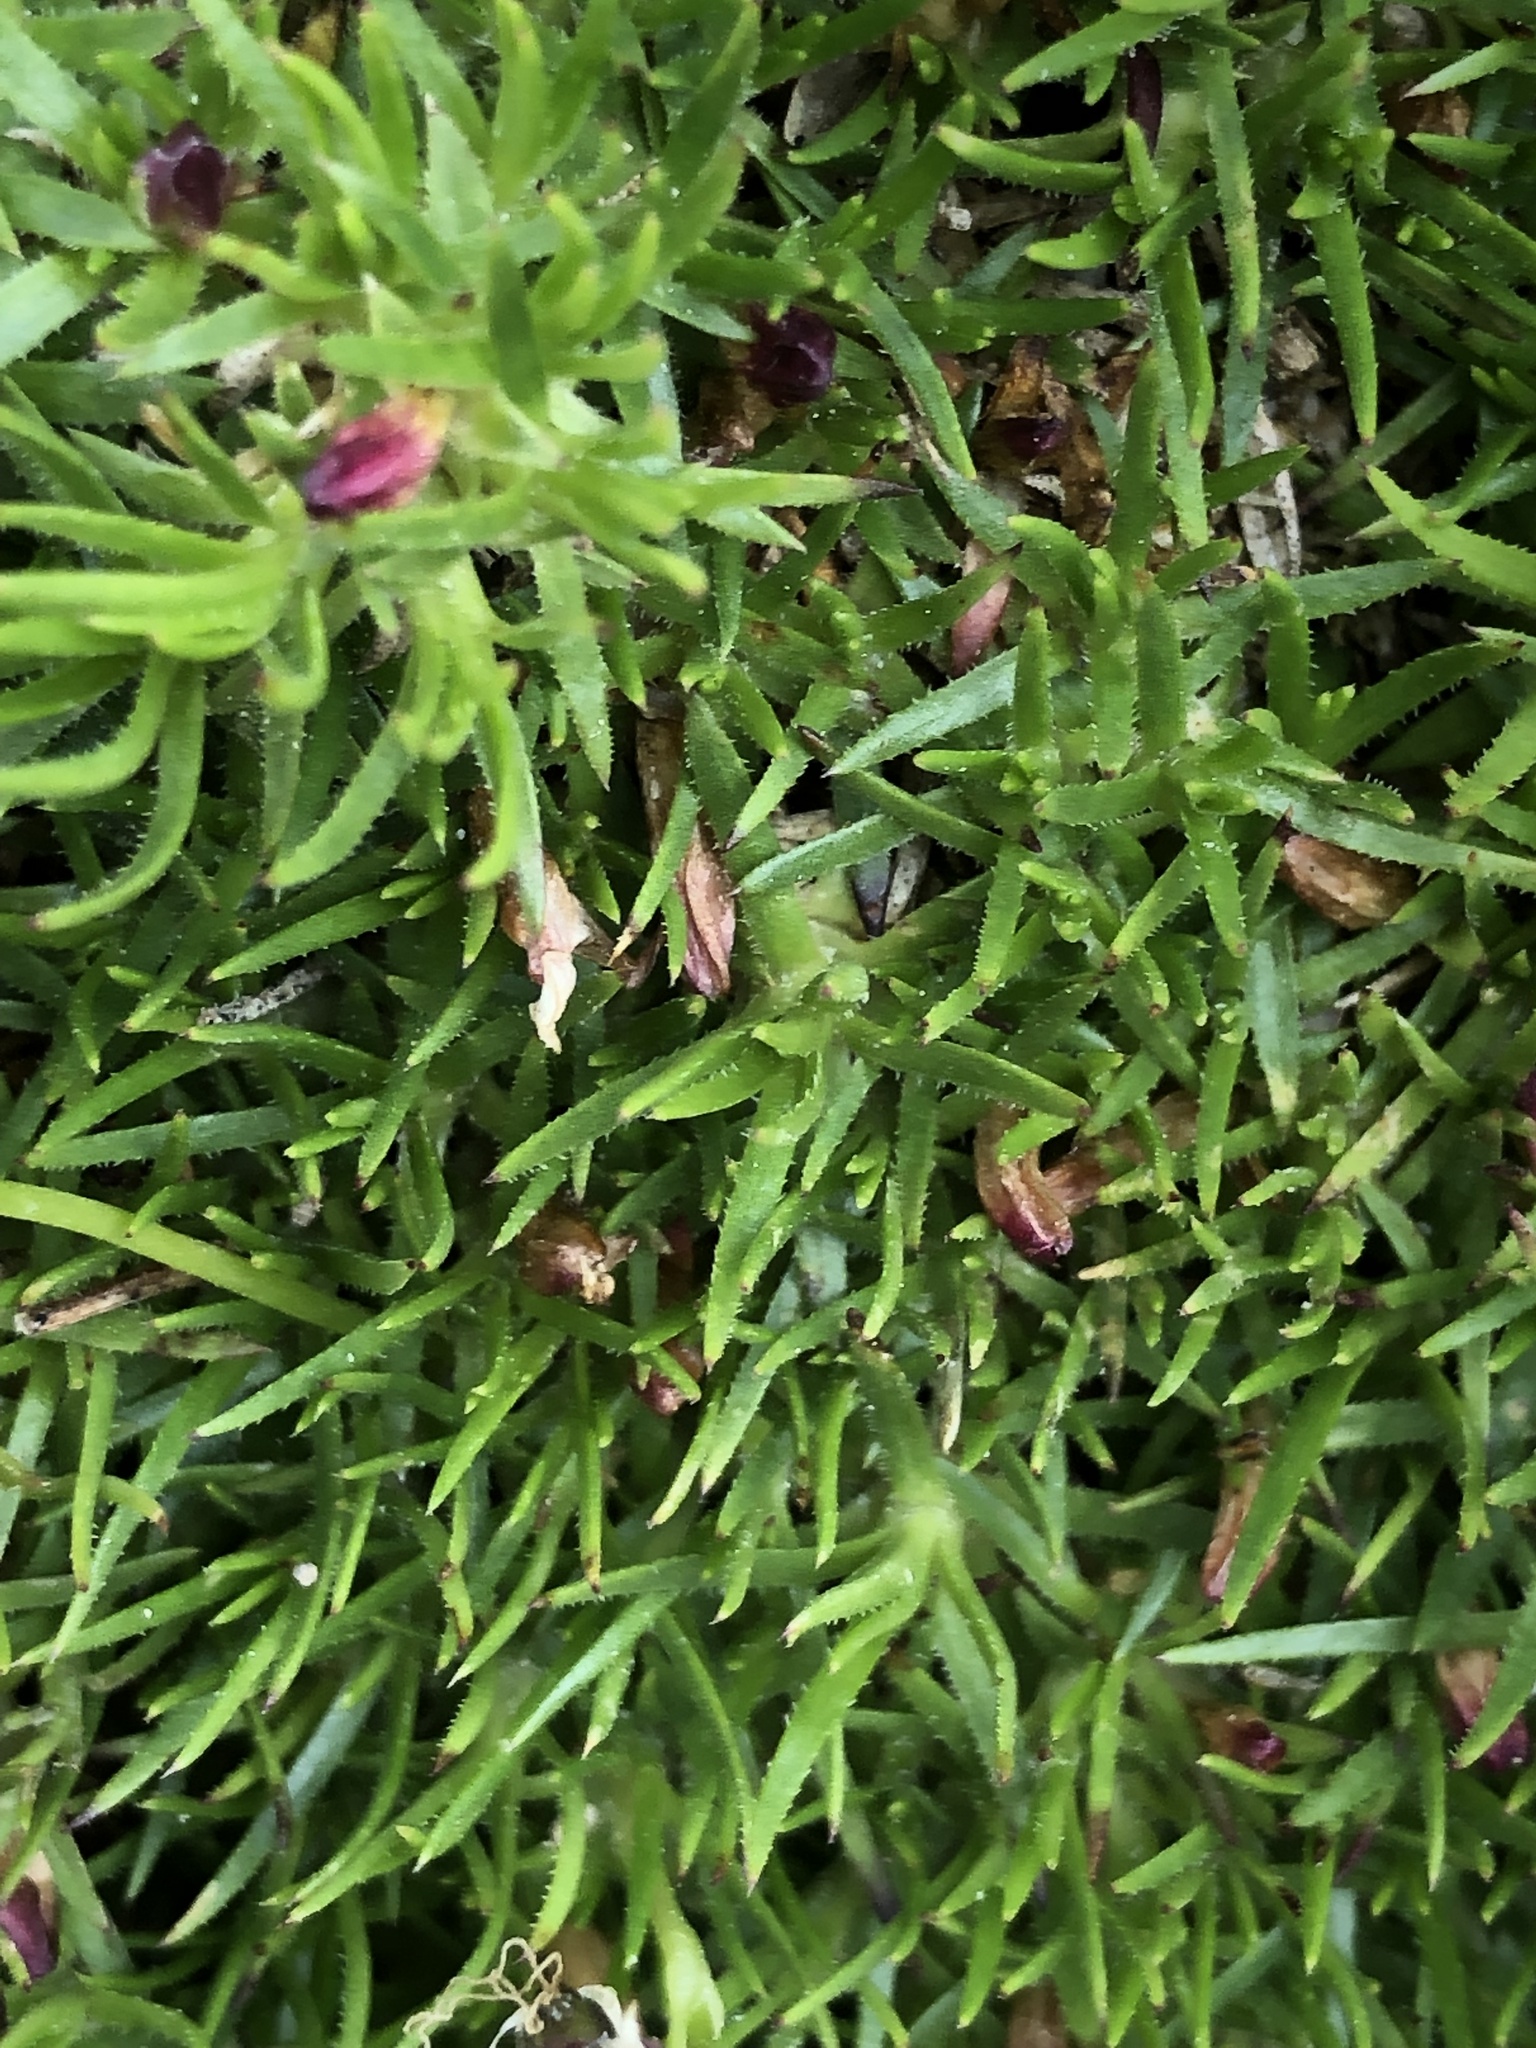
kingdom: Plantae
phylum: Tracheophyta
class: Magnoliopsida
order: Caryophyllales
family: Caryophyllaceae
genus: Silene
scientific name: Silene acaulis
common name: Moss campion
